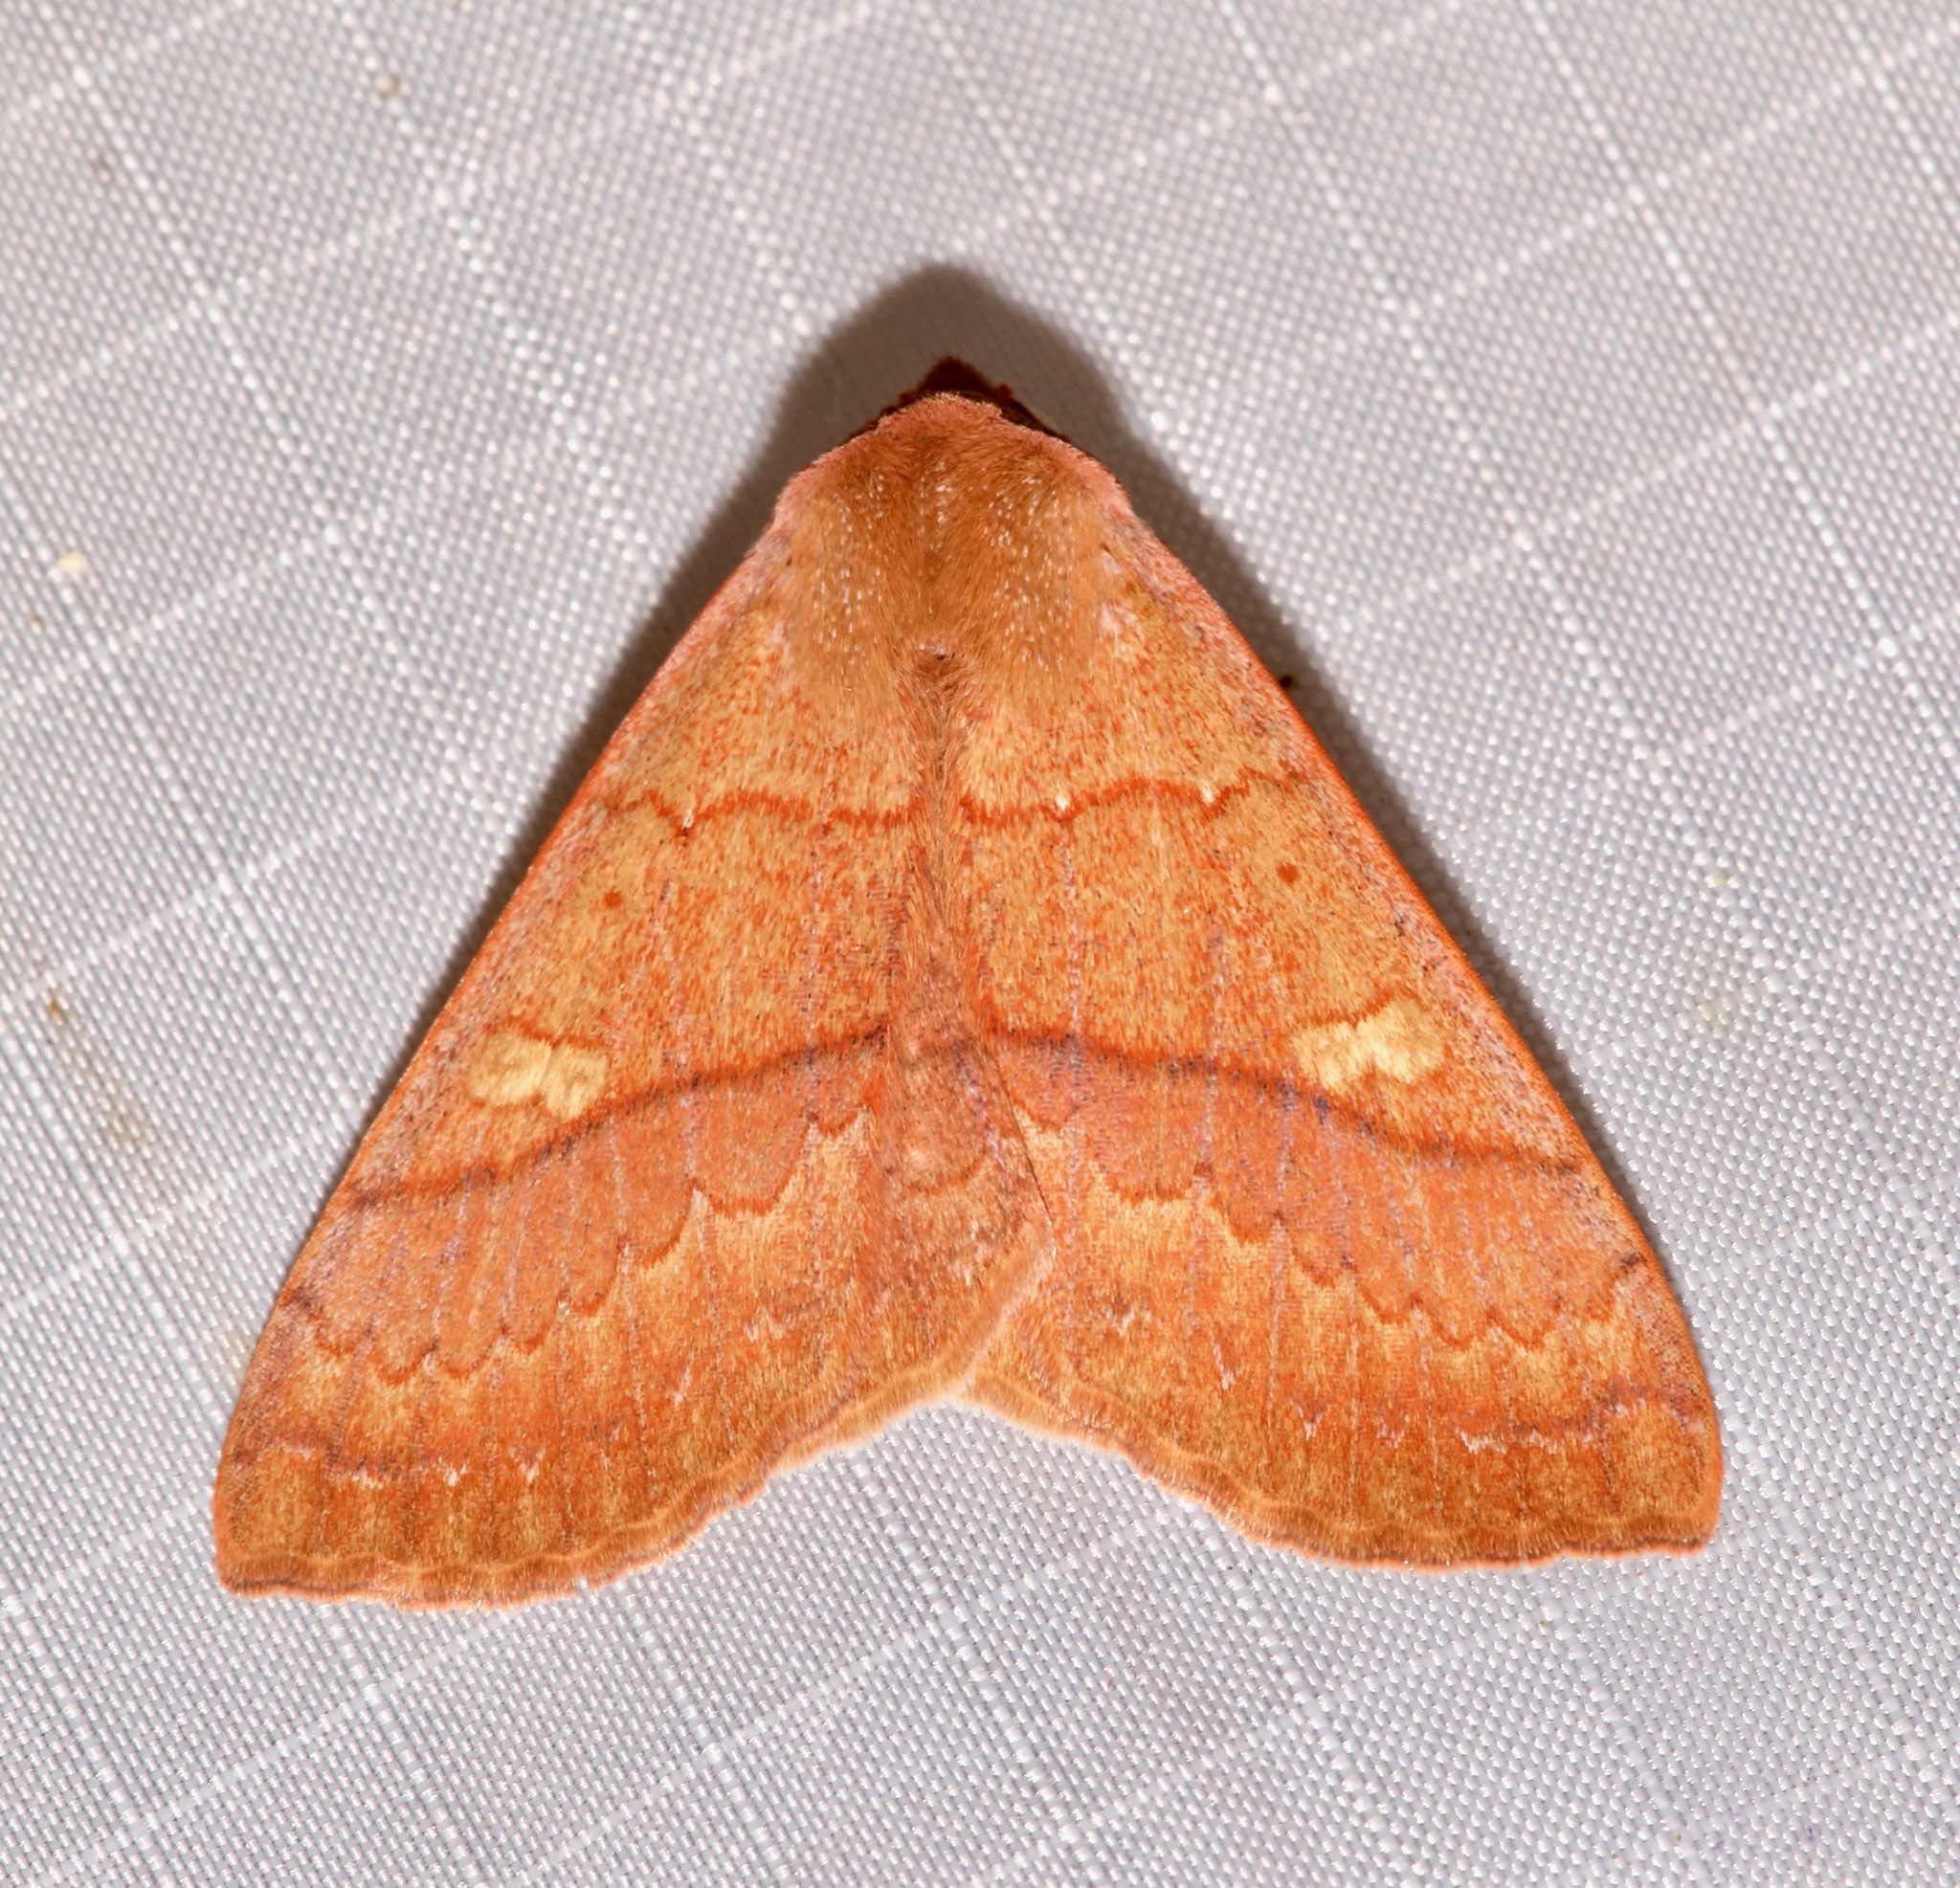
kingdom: Animalia
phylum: Arthropoda
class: Insecta
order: Lepidoptera
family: Erebidae
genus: Panopoda
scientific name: Panopoda rigida
